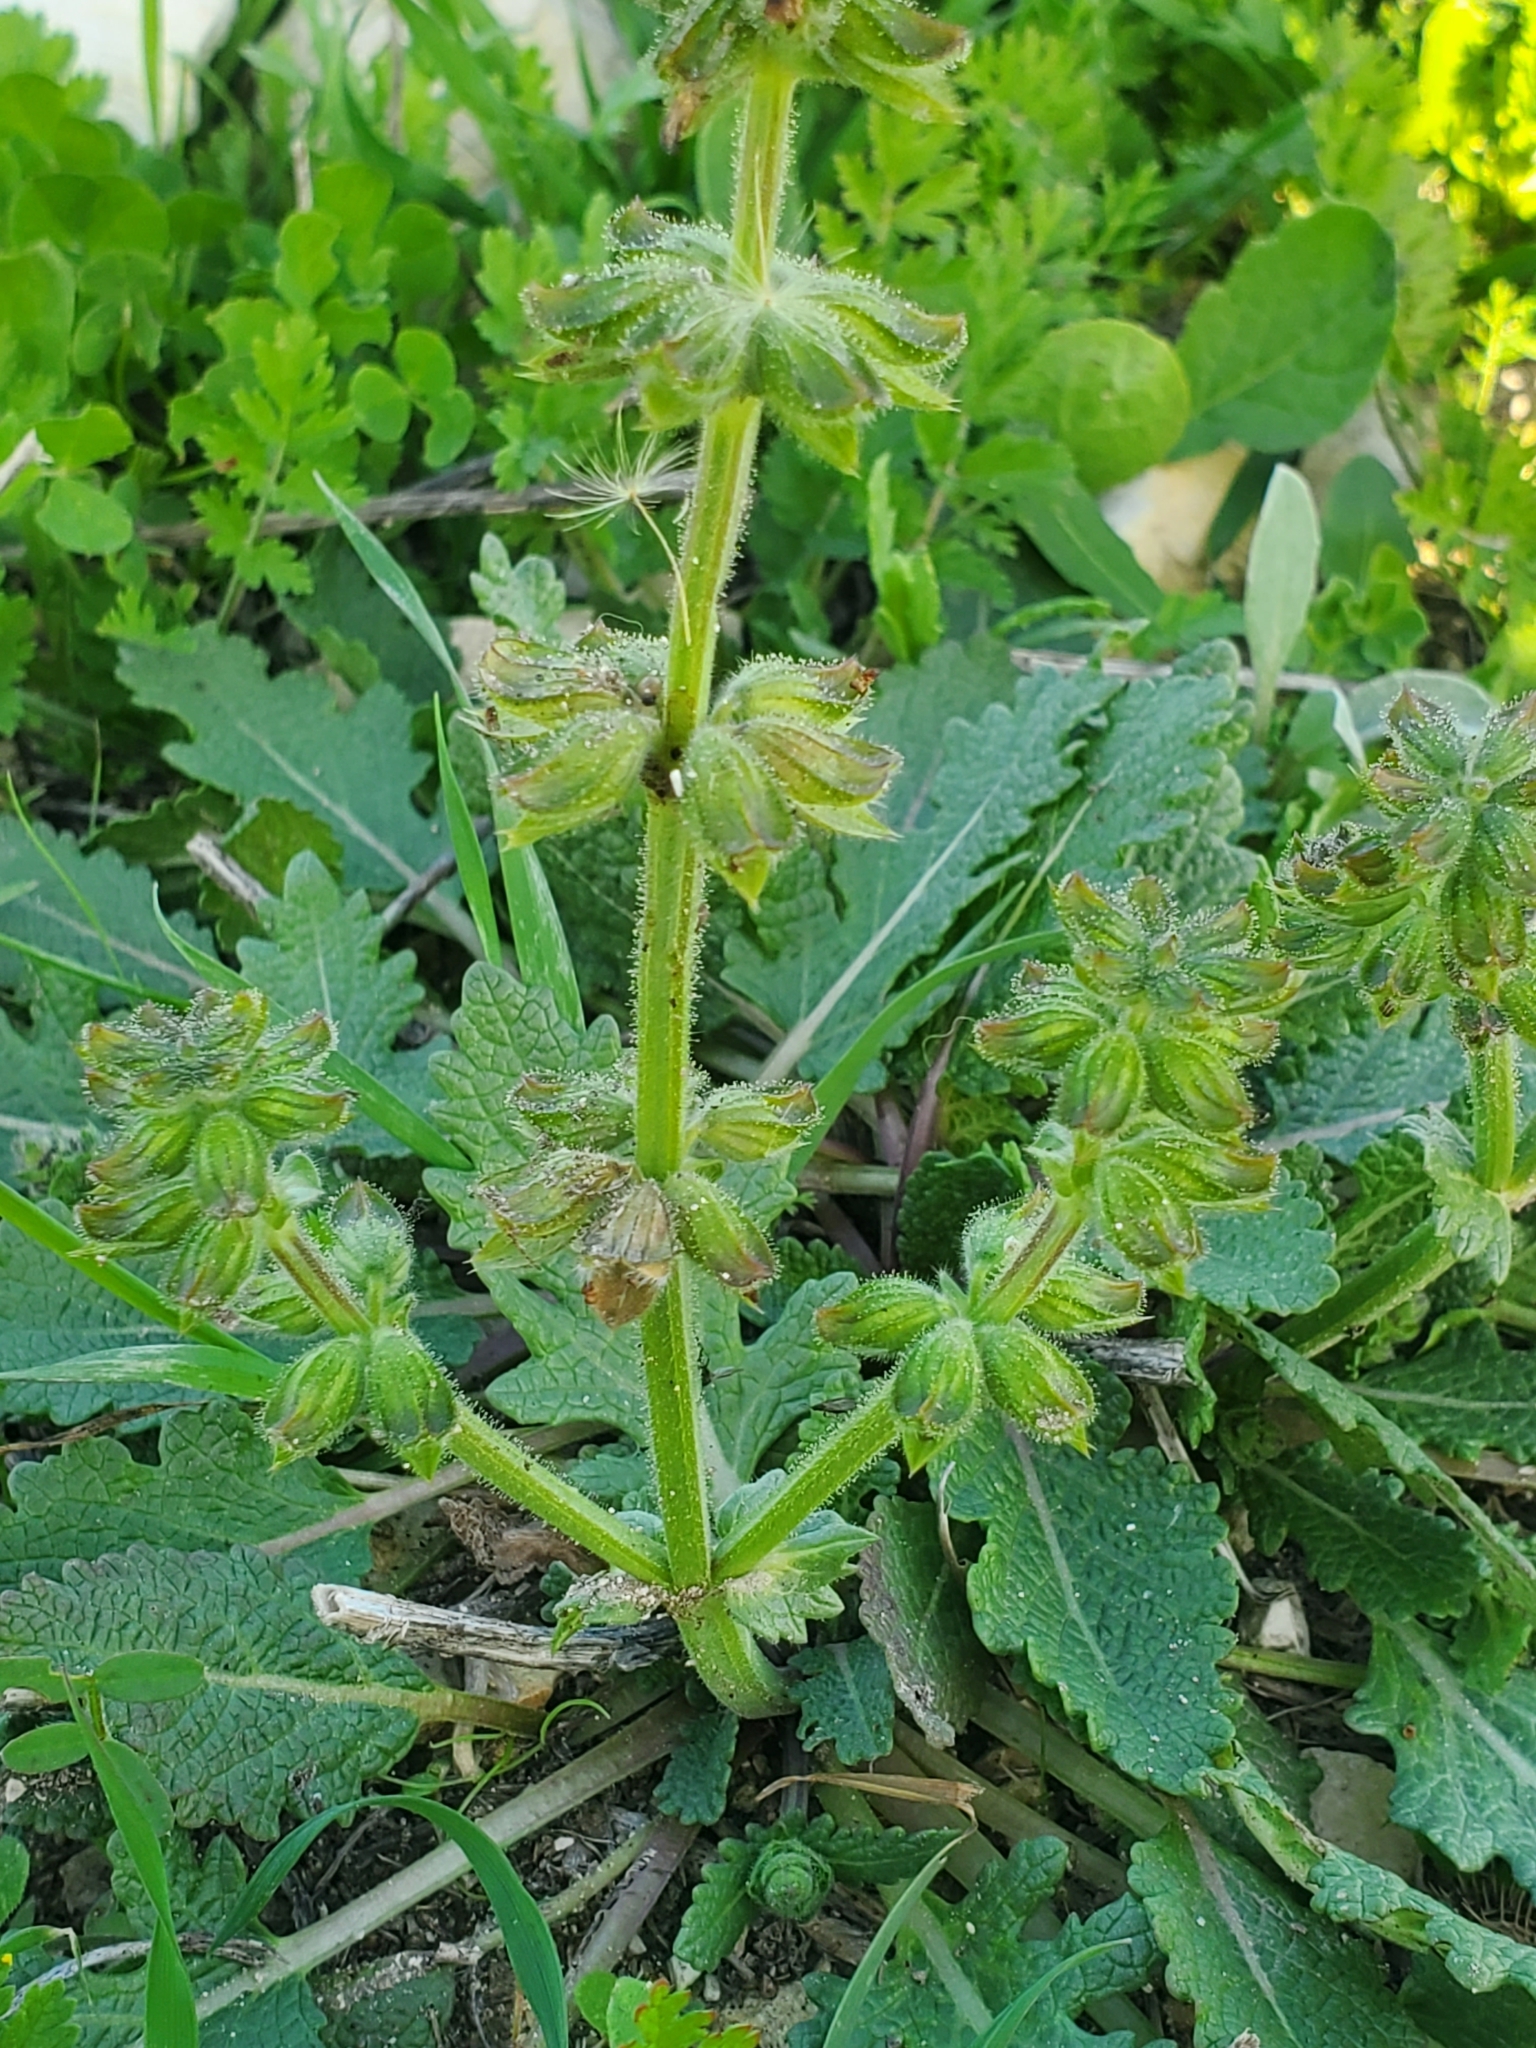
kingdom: Plantae
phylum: Tracheophyta
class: Magnoliopsida
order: Lamiales
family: Lamiaceae
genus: Salvia
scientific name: Salvia verbenaca
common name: Wild clary
